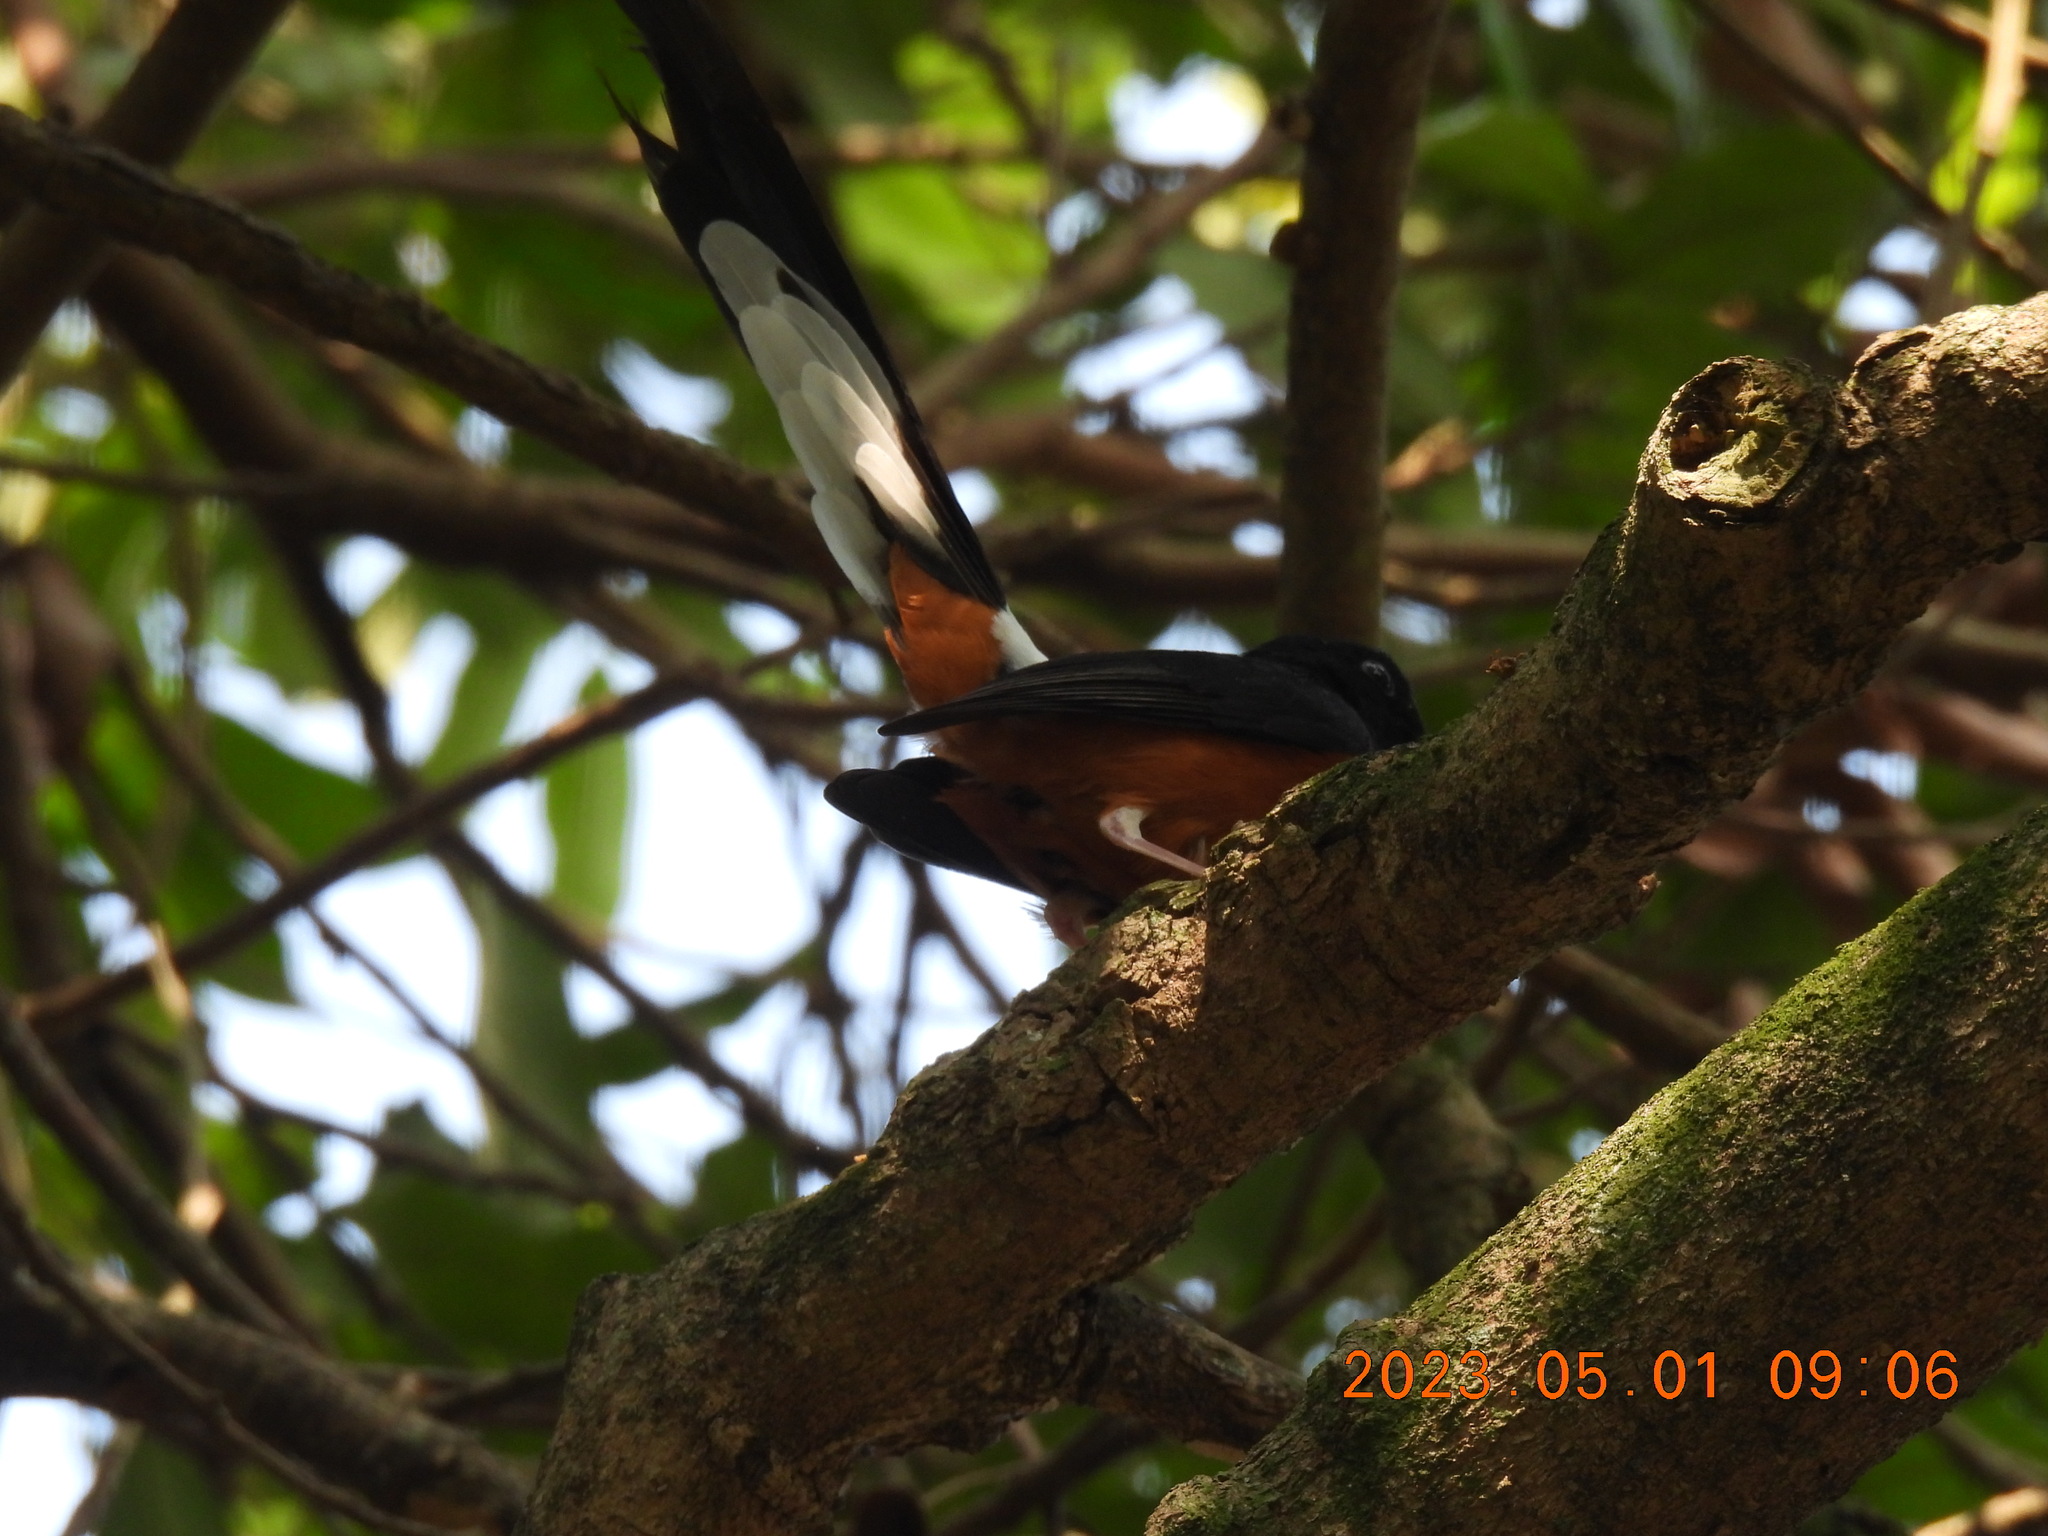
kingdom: Animalia
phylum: Chordata
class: Aves
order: Passeriformes
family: Muscicapidae
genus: Copsychus
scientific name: Copsychus malabaricus
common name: White-rumped shama
